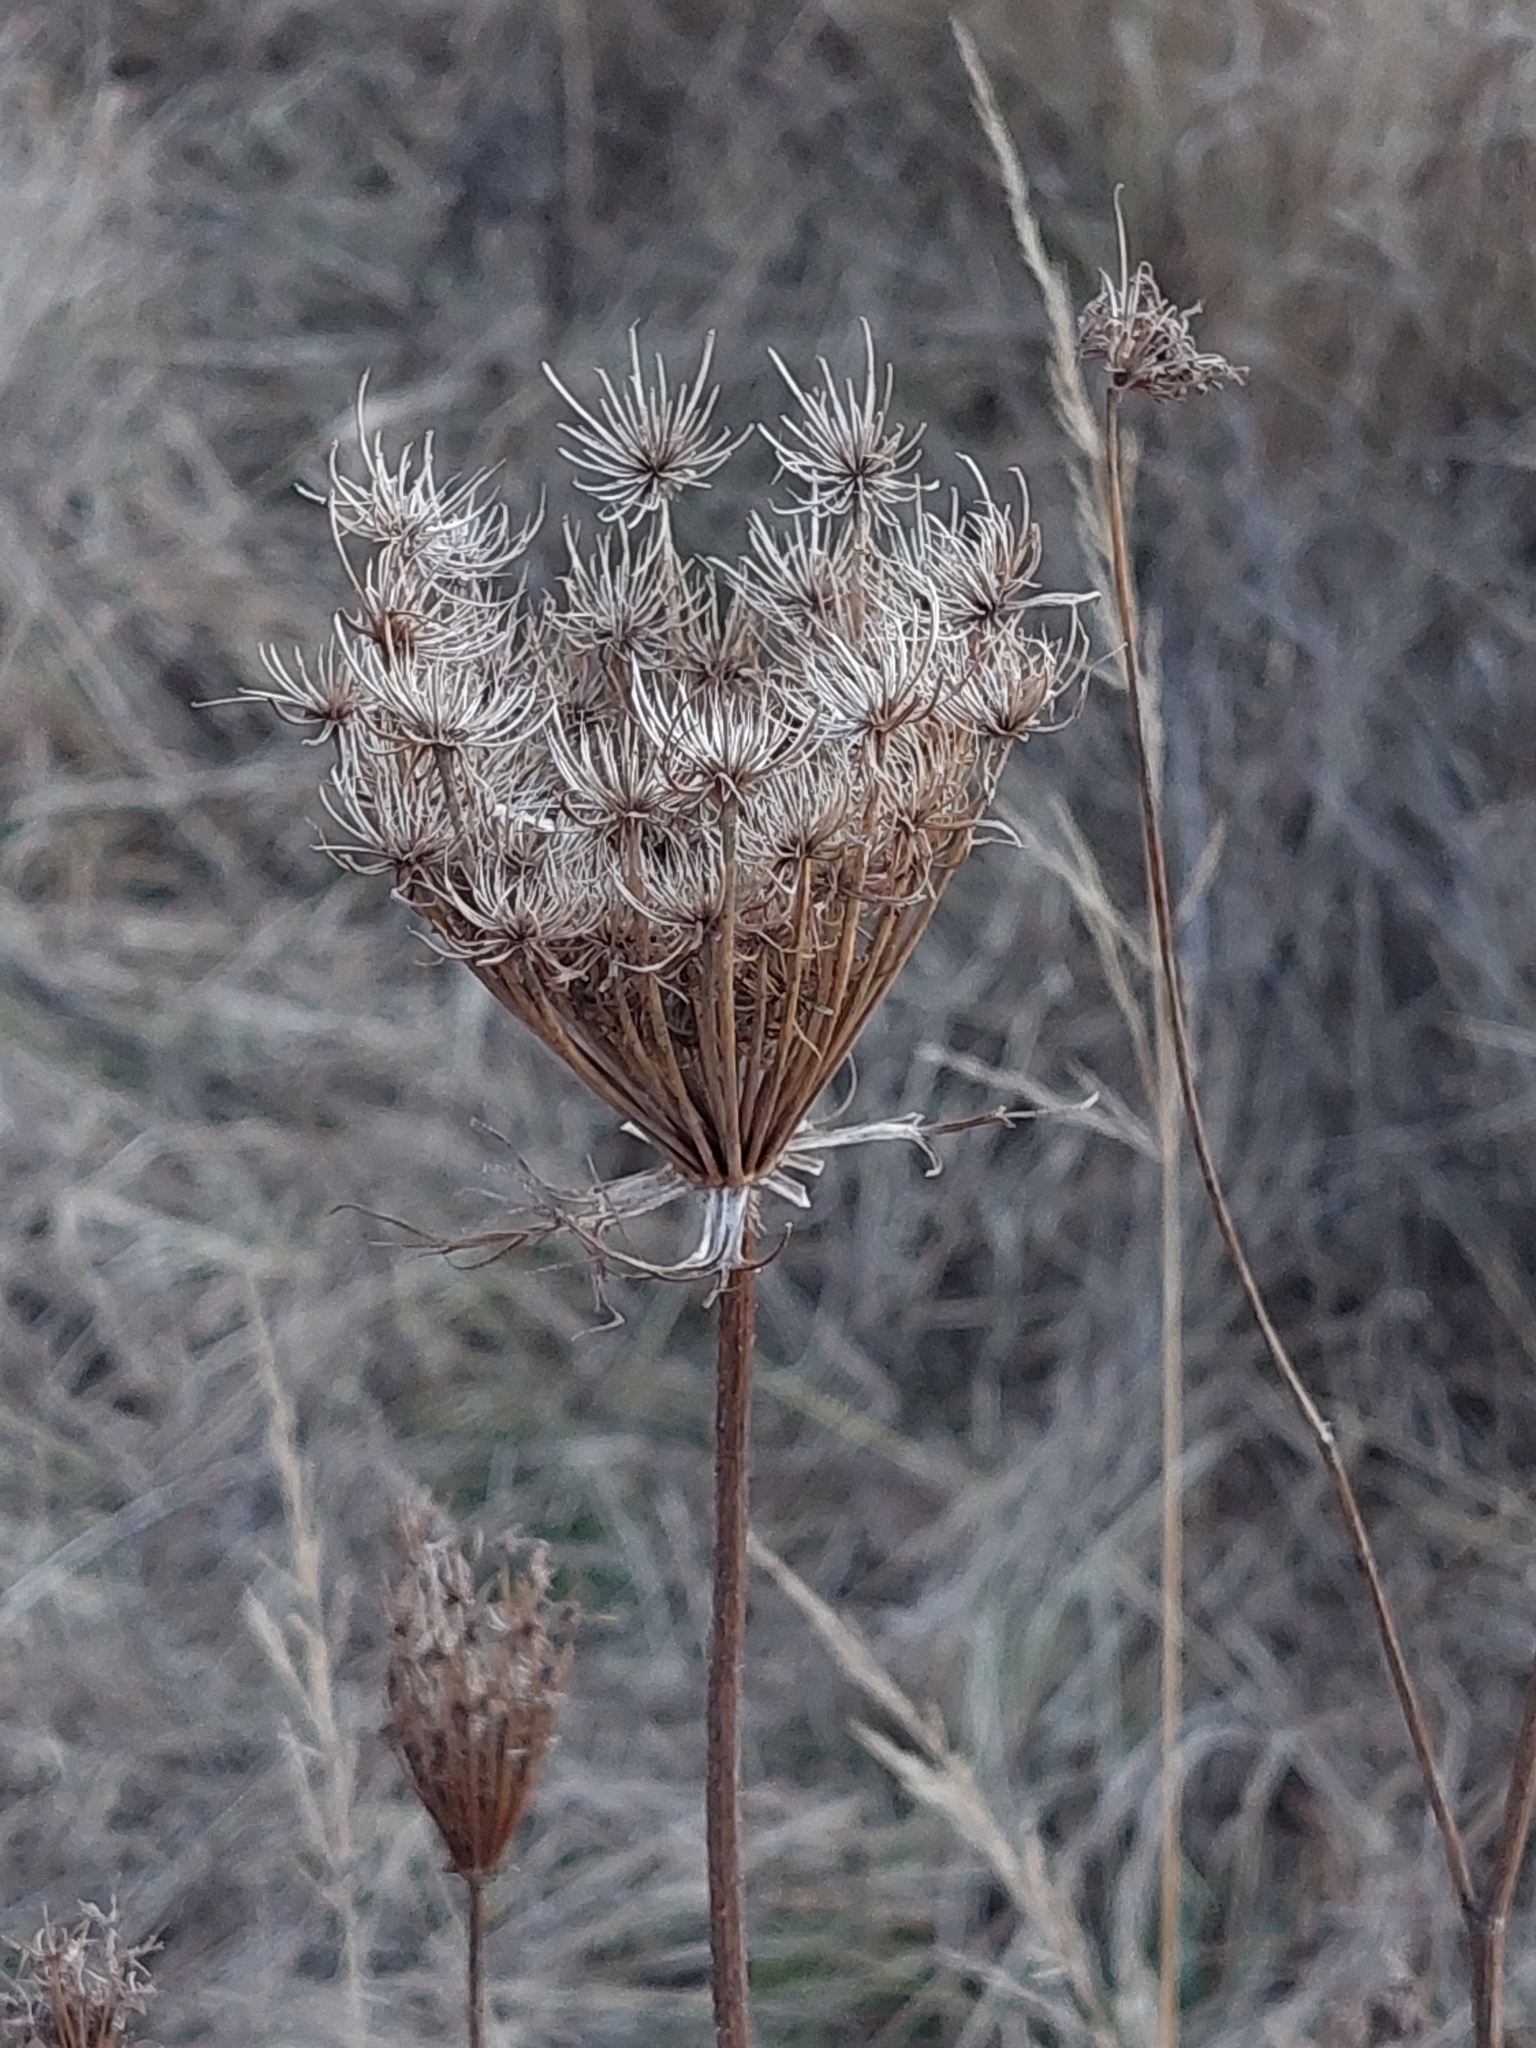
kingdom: Plantae
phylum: Tracheophyta
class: Magnoliopsida
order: Apiales
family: Apiaceae
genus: Daucus
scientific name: Daucus carota
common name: Wild carrot
